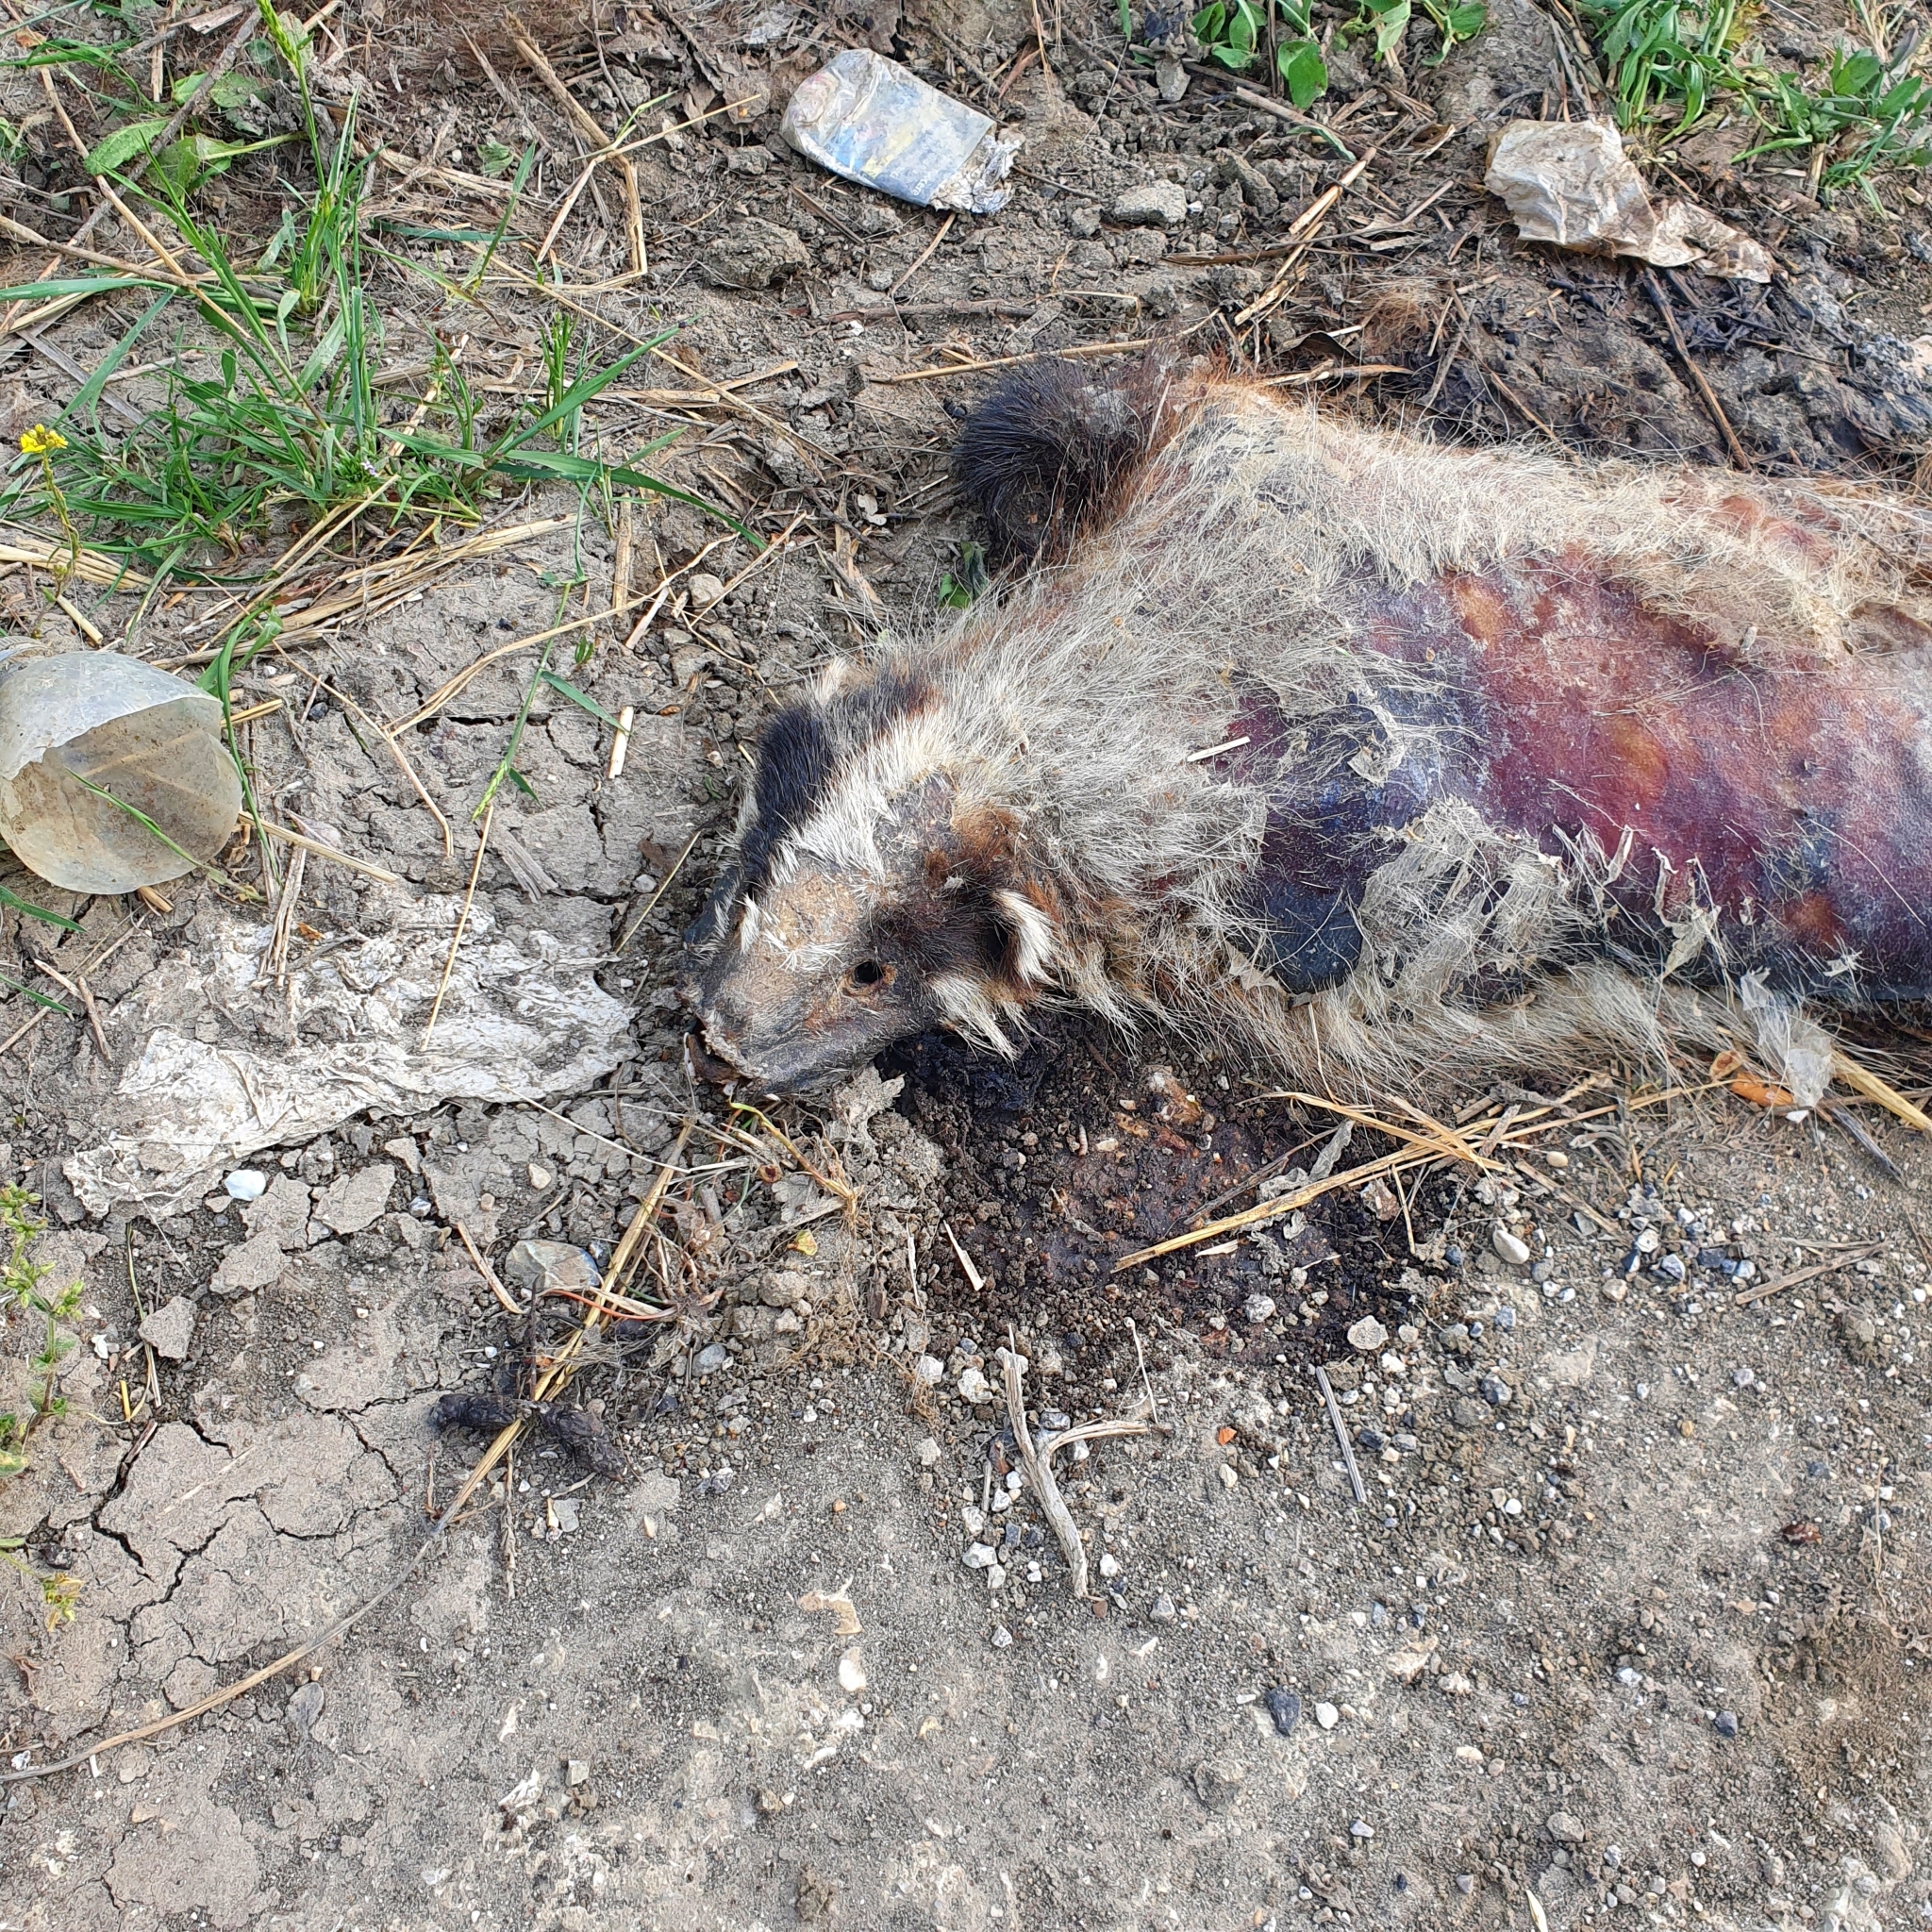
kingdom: Animalia
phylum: Chordata
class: Mammalia
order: Carnivora
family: Mustelidae
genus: Meles
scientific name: Meles meles
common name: Eurasian badger
